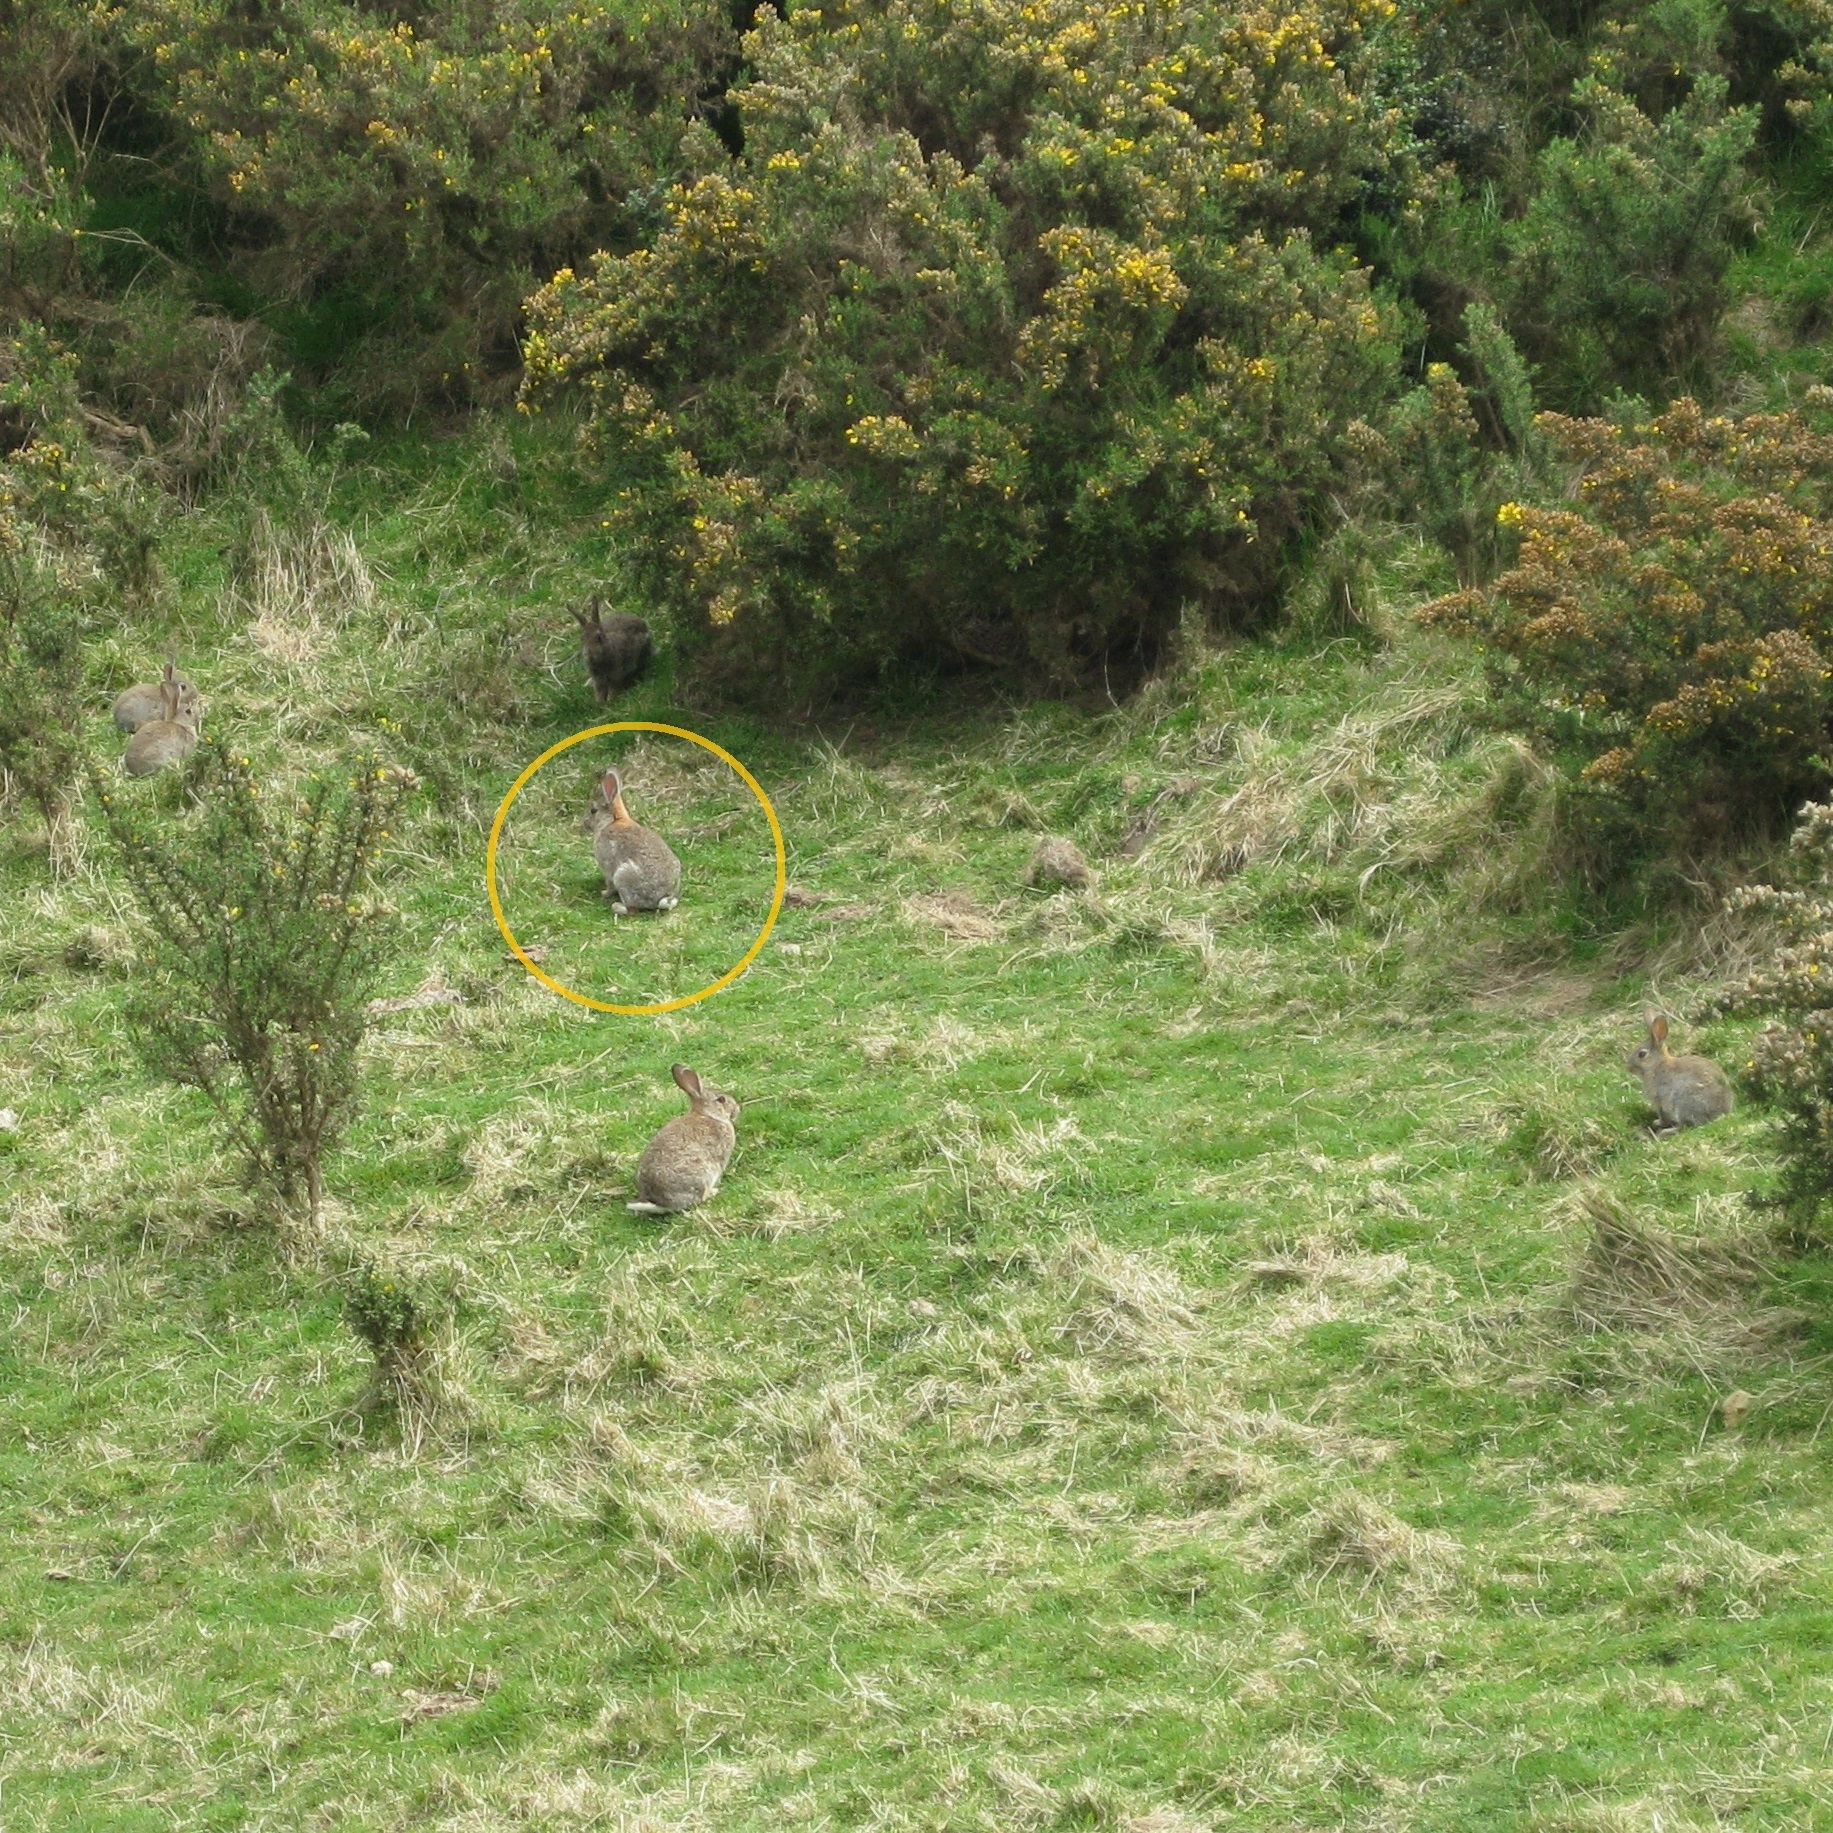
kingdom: Animalia
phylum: Chordata
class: Mammalia
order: Lagomorpha
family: Leporidae
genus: Oryctolagus
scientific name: Oryctolagus cuniculus
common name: European rabbit
